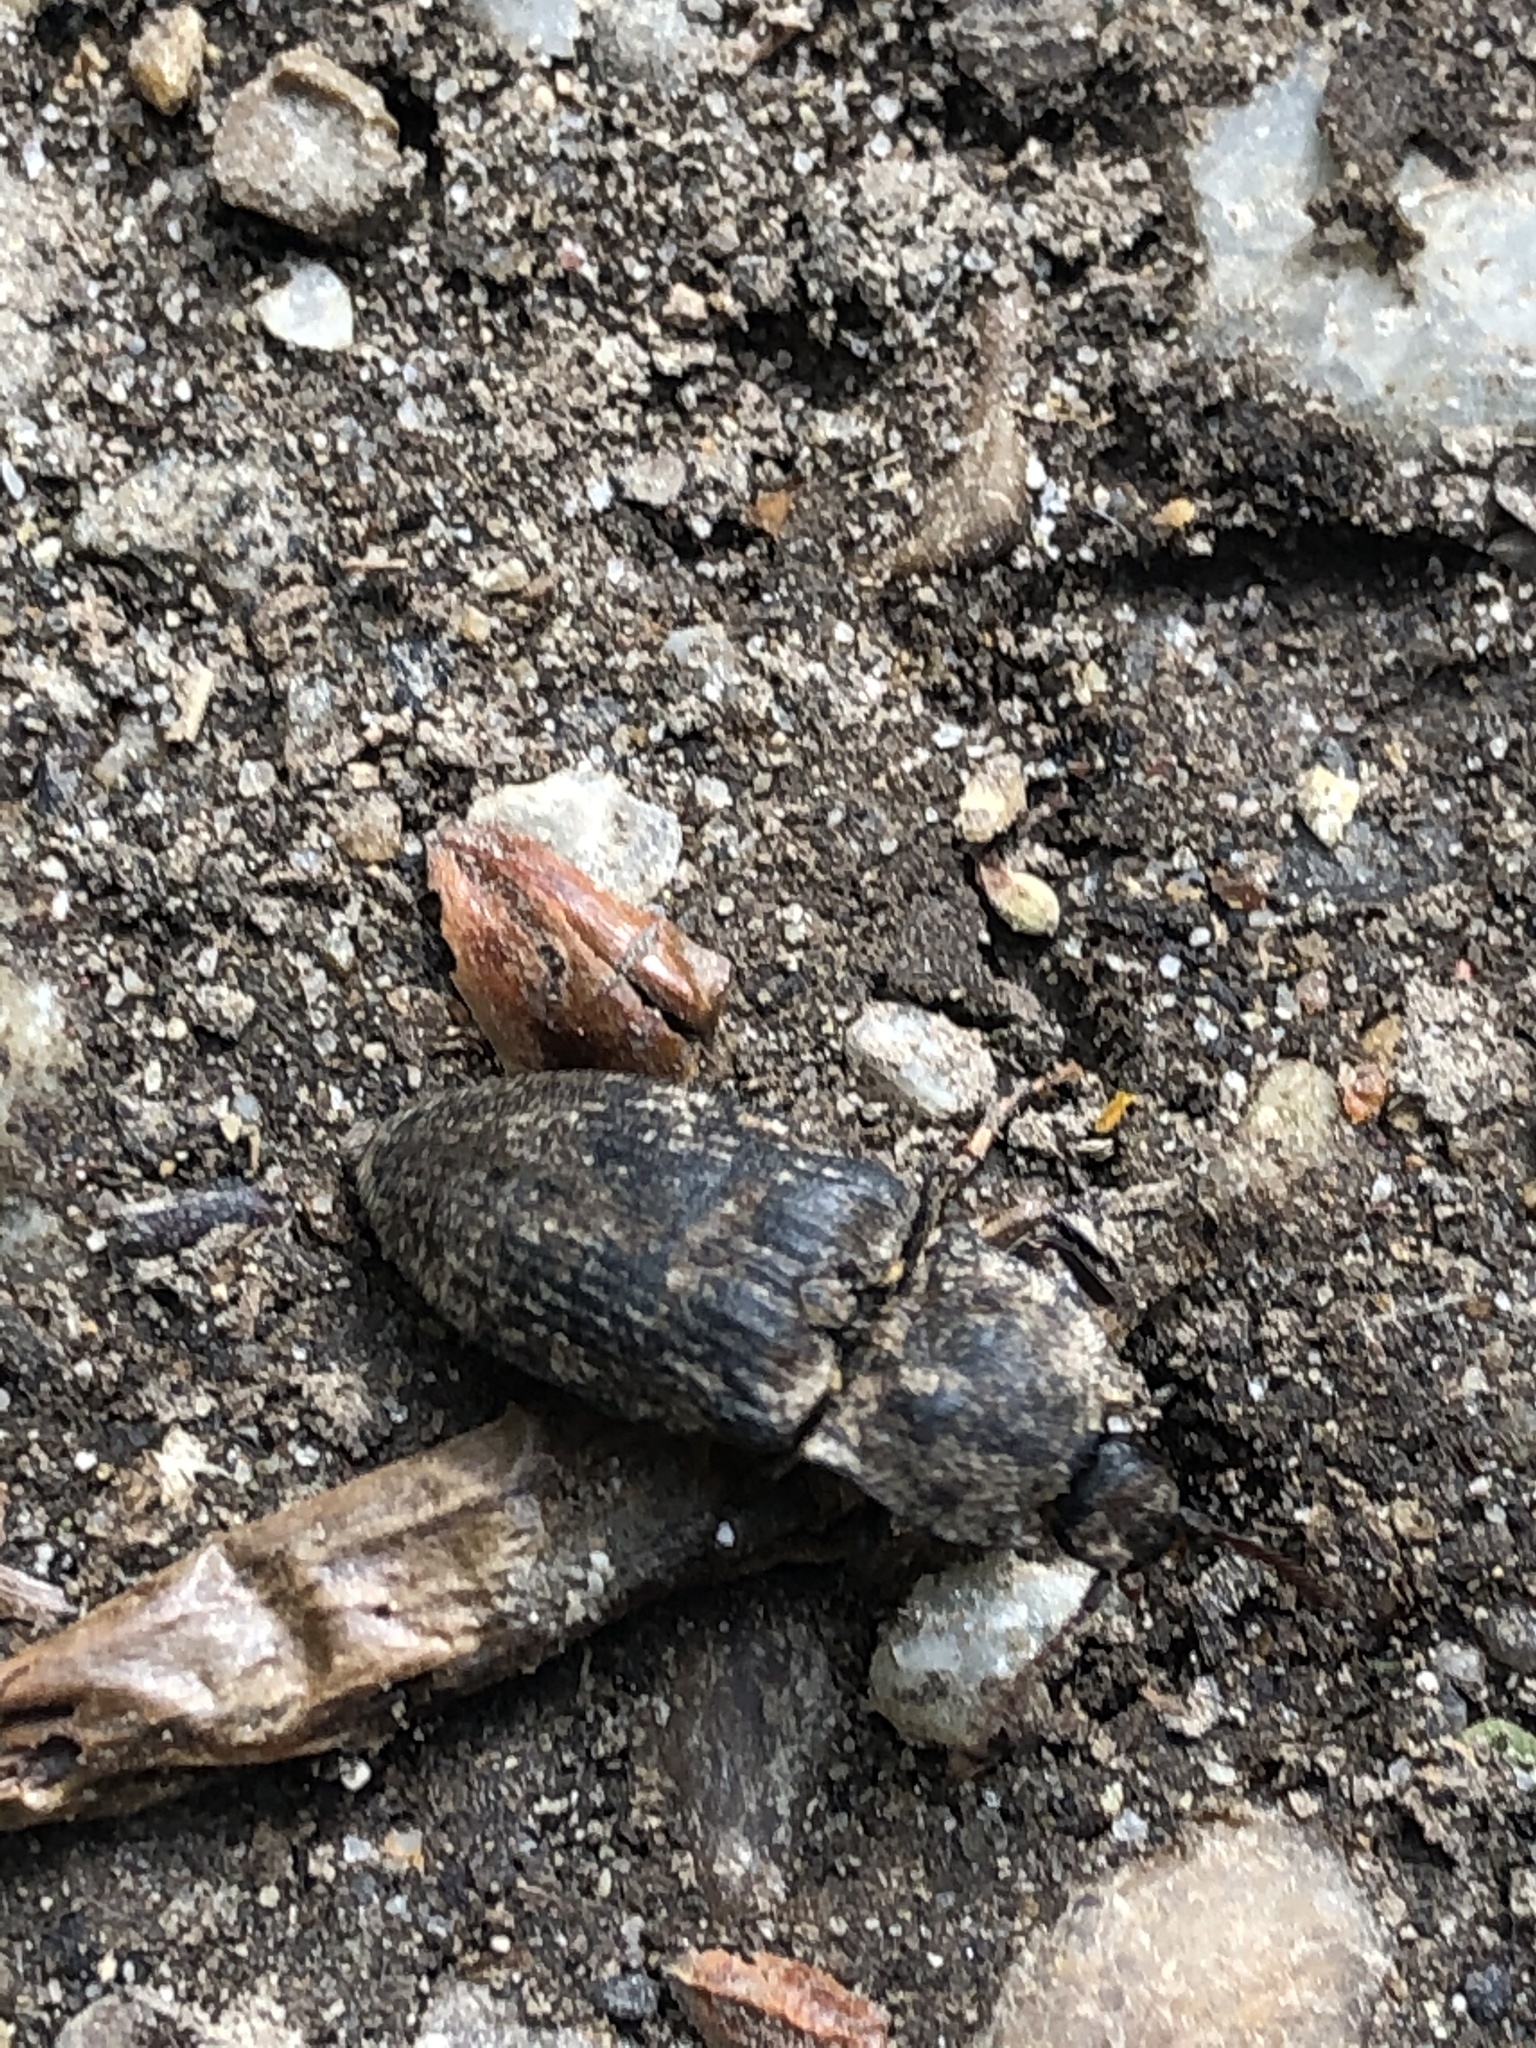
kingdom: Animalia
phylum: Arthropoda
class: Insecta
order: Coleoptera
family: Elateridae
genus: Agrypnus
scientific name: Agrypnus murinus
